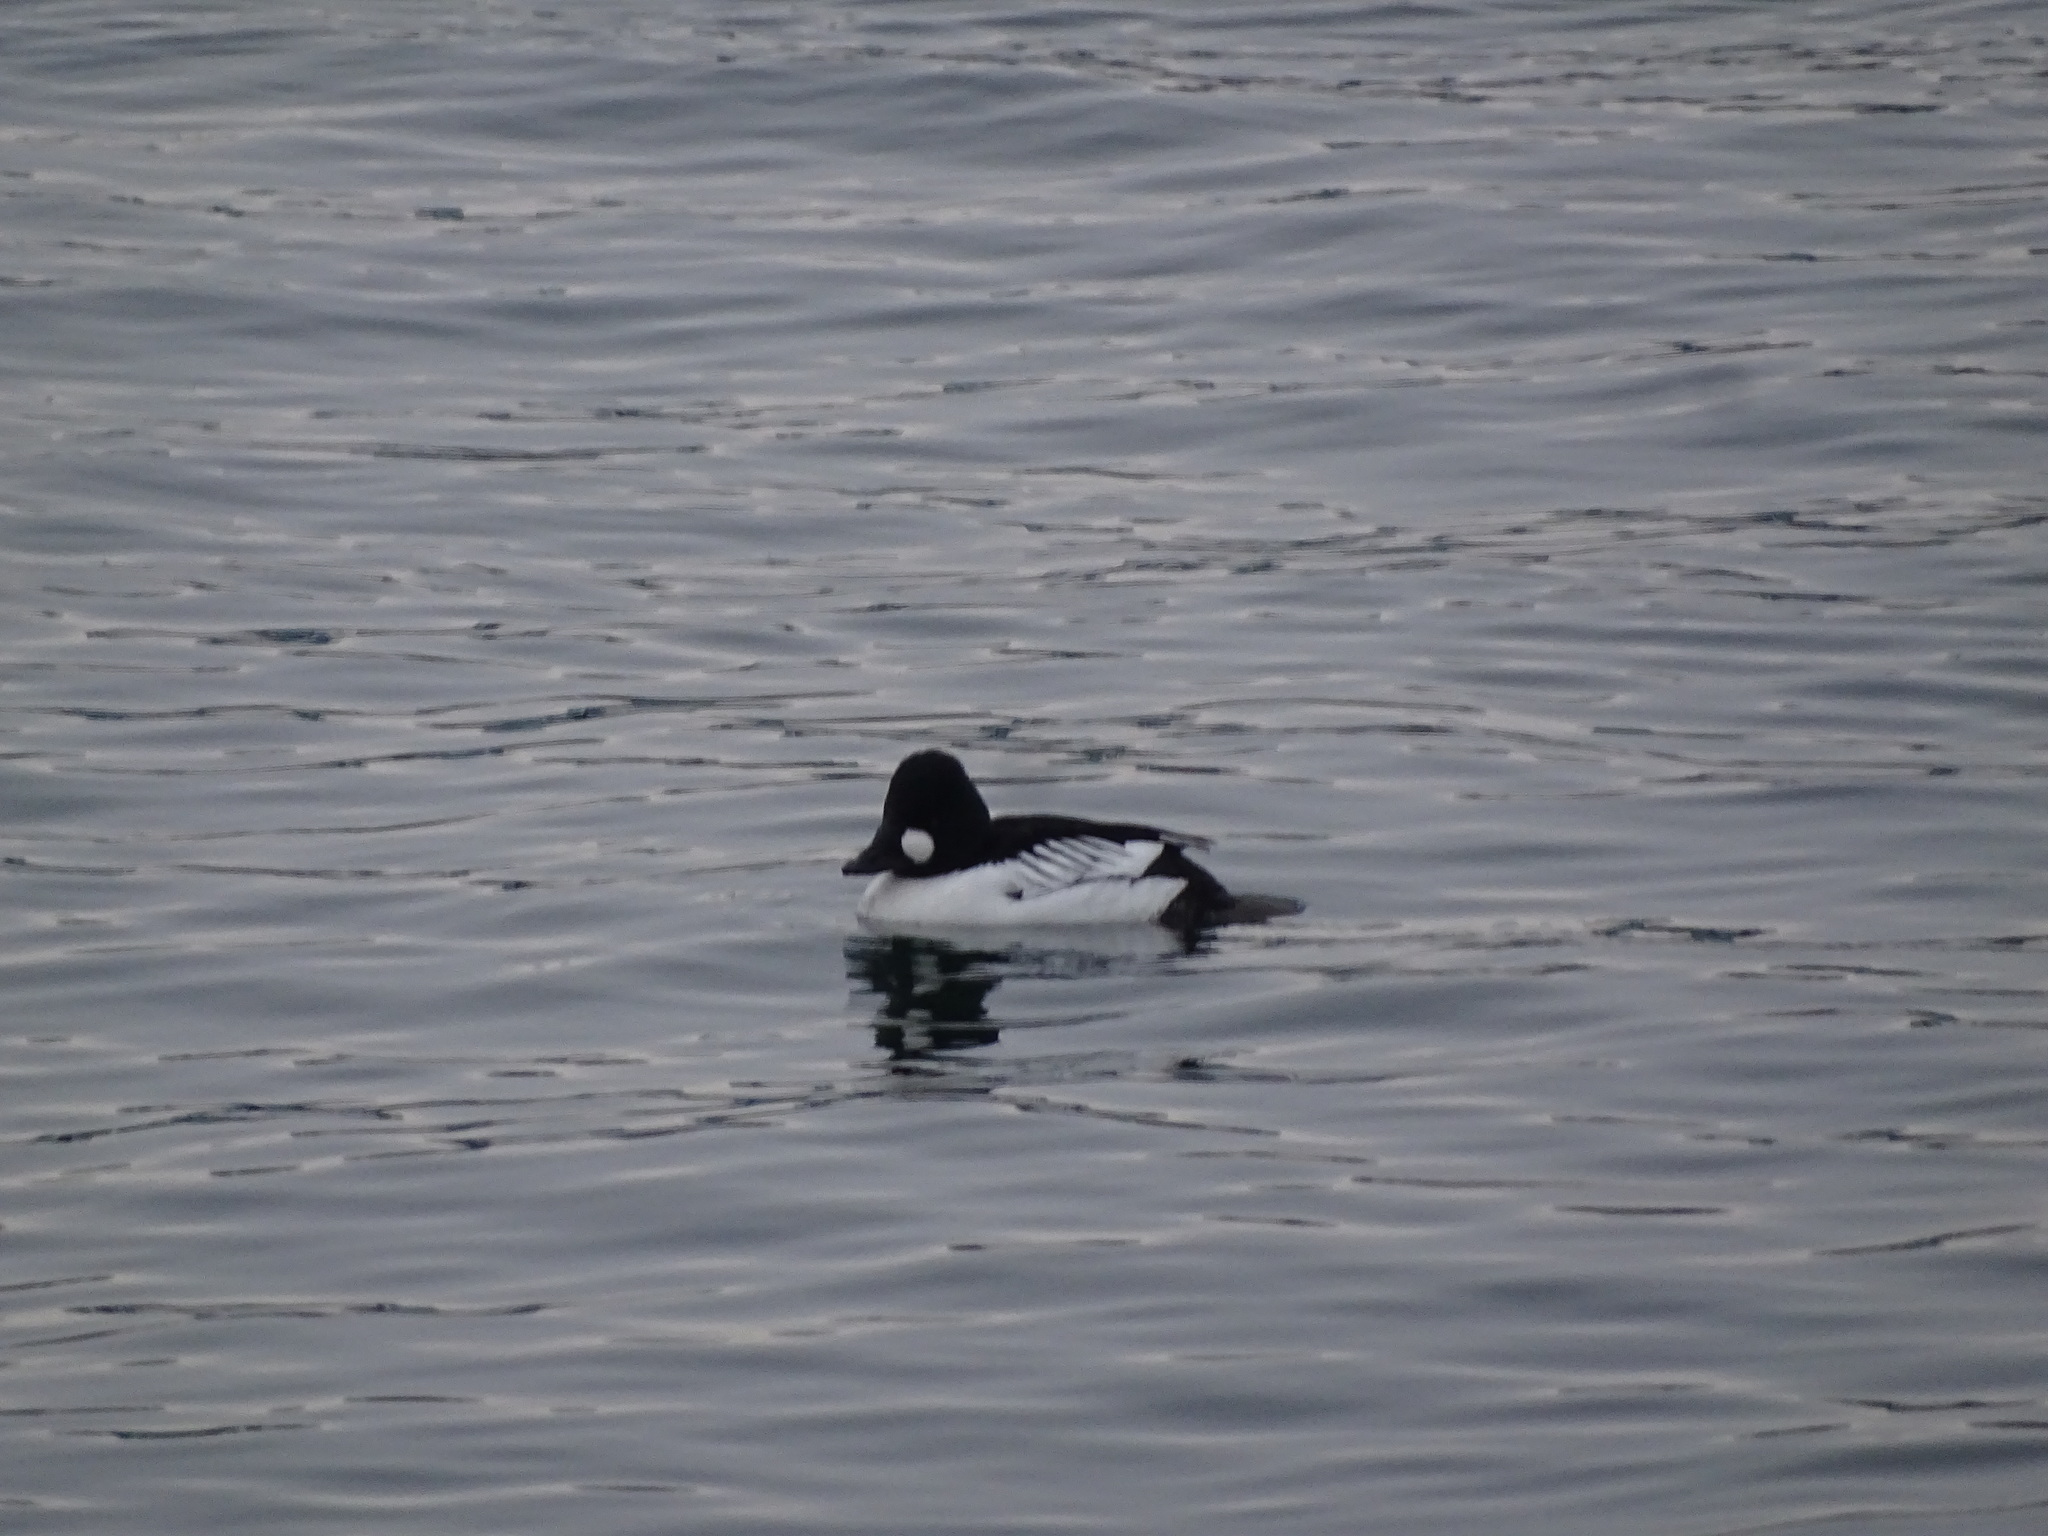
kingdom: Animalia
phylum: Chordata
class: Aves
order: Anseriformes
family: Anatidae
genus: Bucephala
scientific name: Bucephala clangula
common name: Common goldeneye
